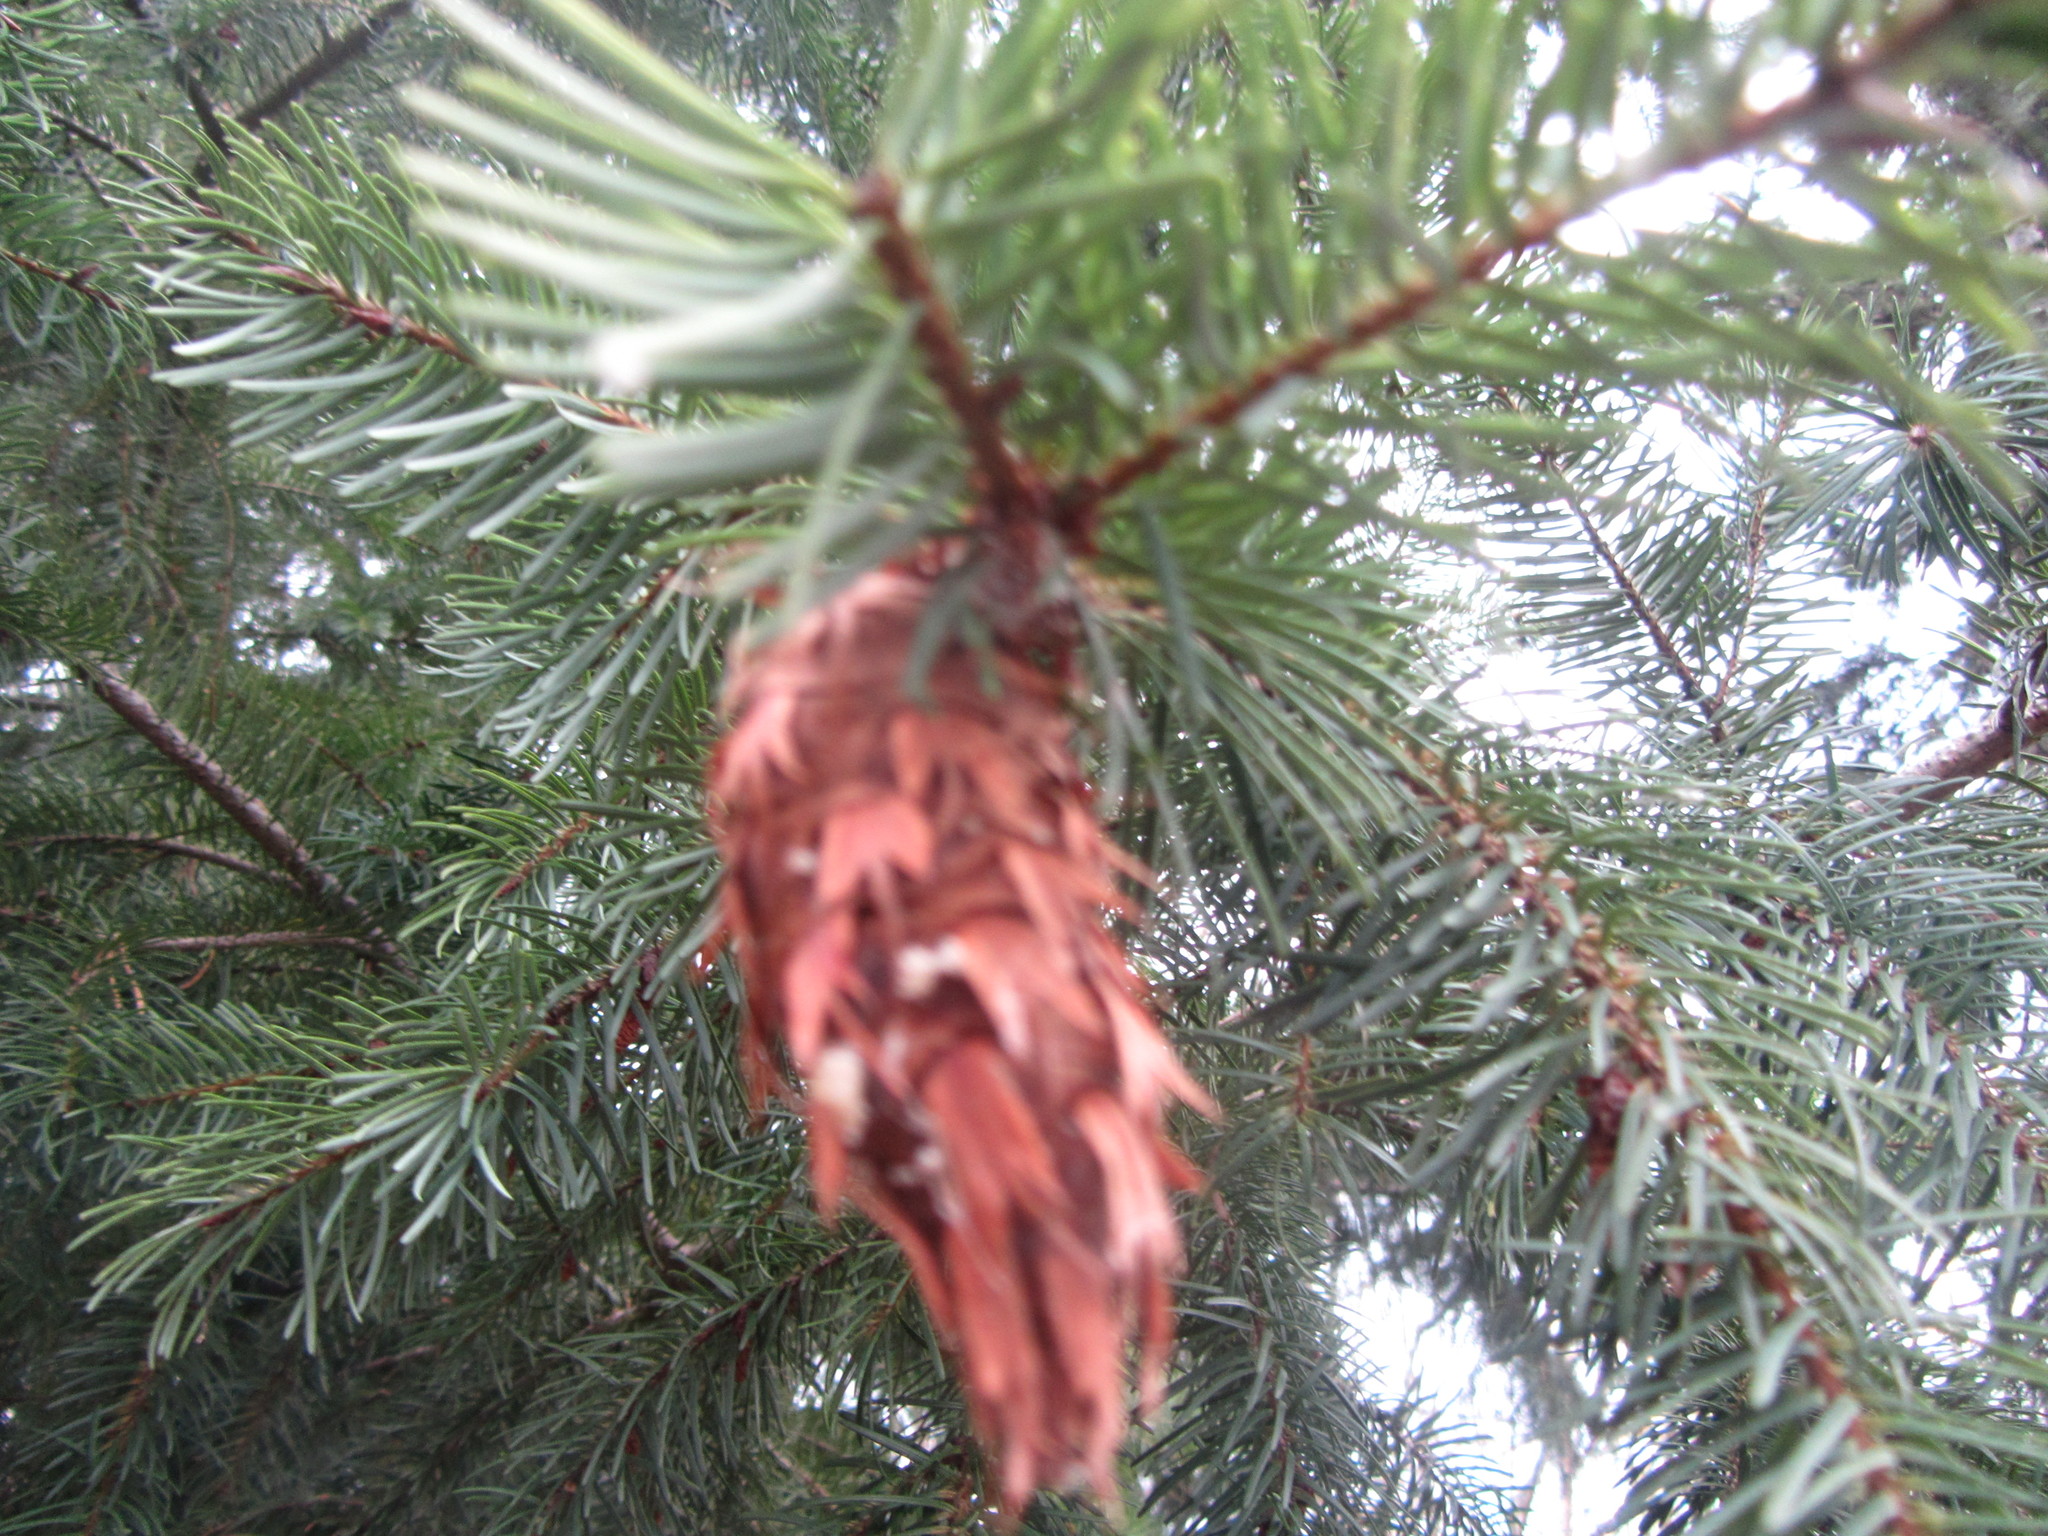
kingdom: Plantae
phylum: Tracheophyta
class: Pinopsida
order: Pinales
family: Pinaceae
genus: Pseudotsuga
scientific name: Pseudotsuga menziesii
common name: Douglas fir
